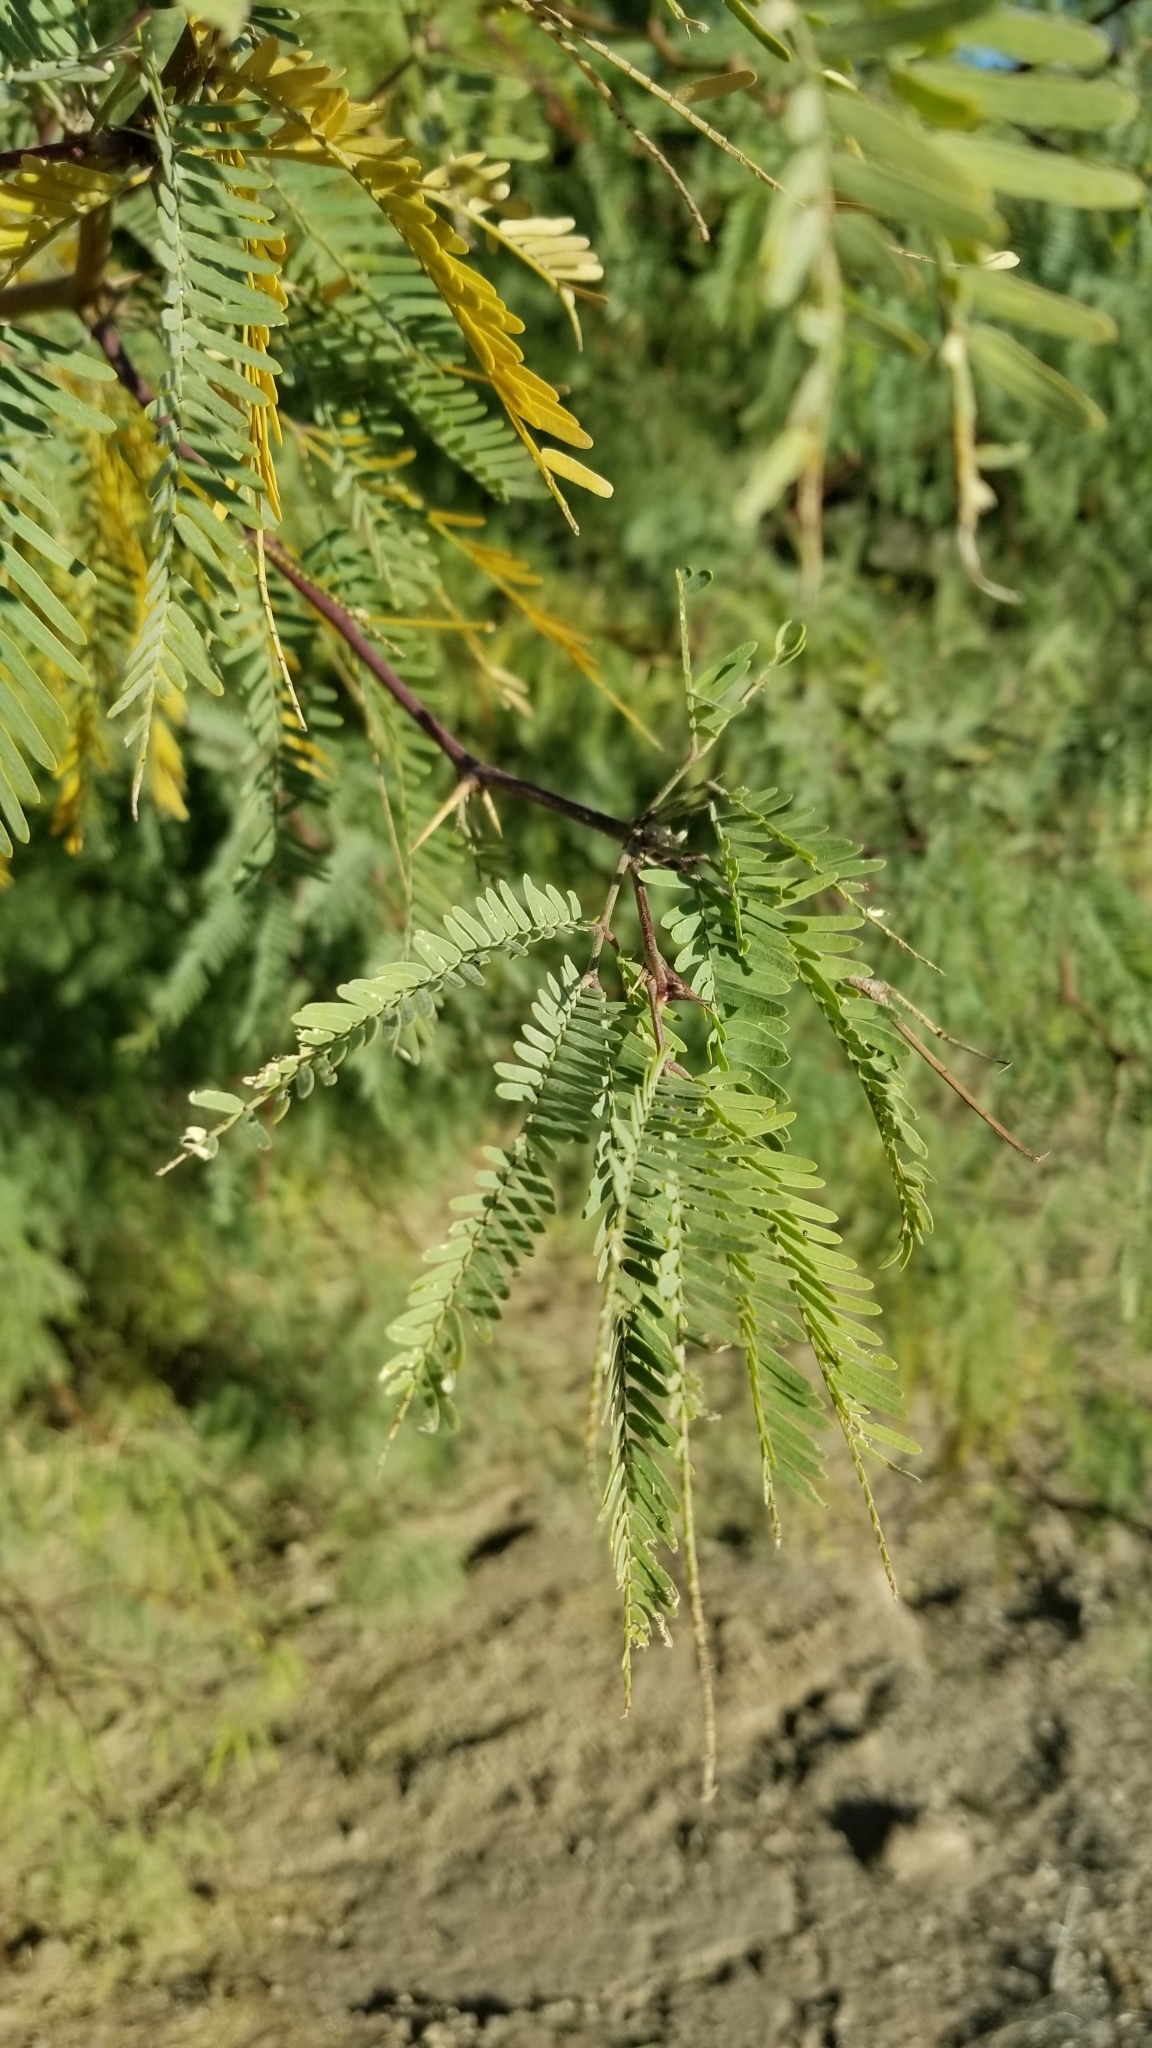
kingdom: Plantae
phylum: Tracheophyta
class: Magnoliopsida
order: Fabales
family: Fabaceae
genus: Prosopis
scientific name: Prosopis velutina
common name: Velvet mesquite
